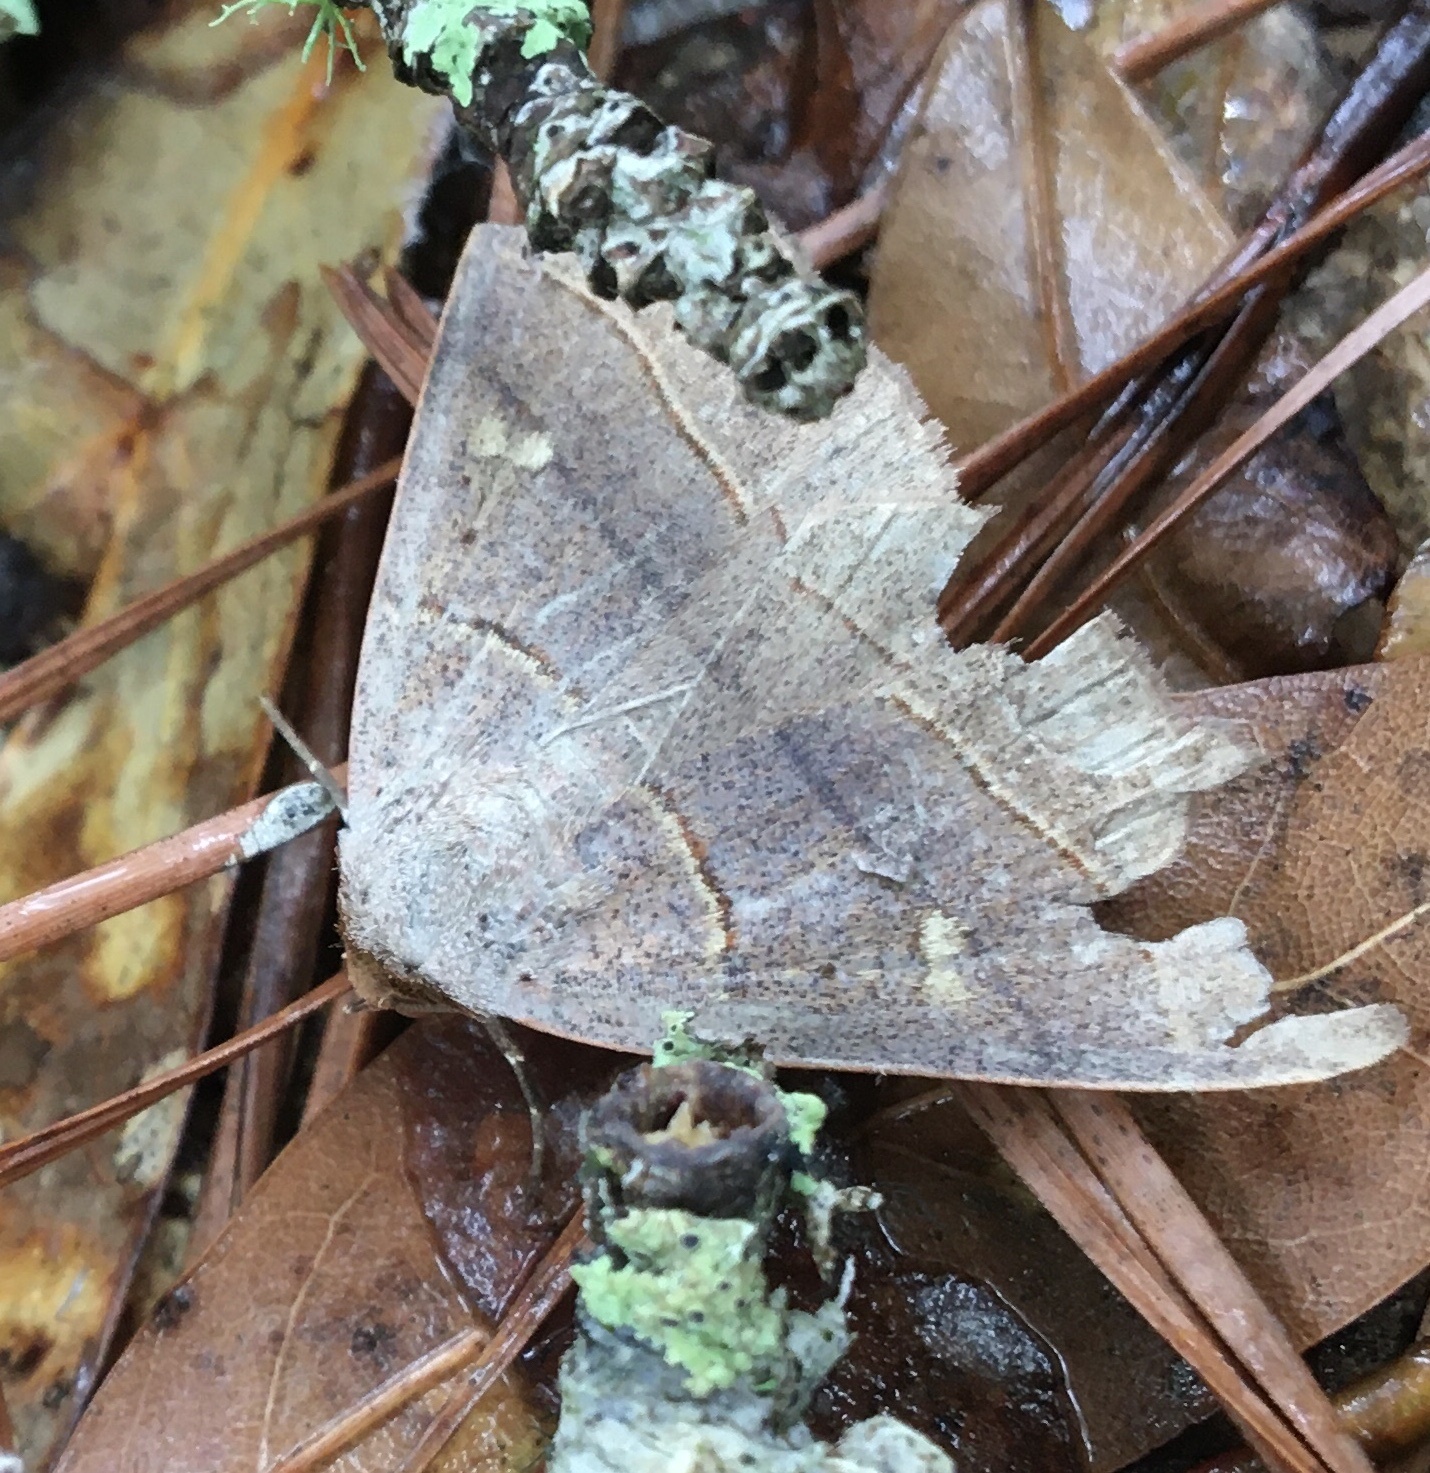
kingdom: Animalia
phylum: Arthropoda
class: Insecta
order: Lepidoptera
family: Erebidae
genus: Panopoda
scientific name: Panopoda rufimargo
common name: Red-lined panopoda moth
